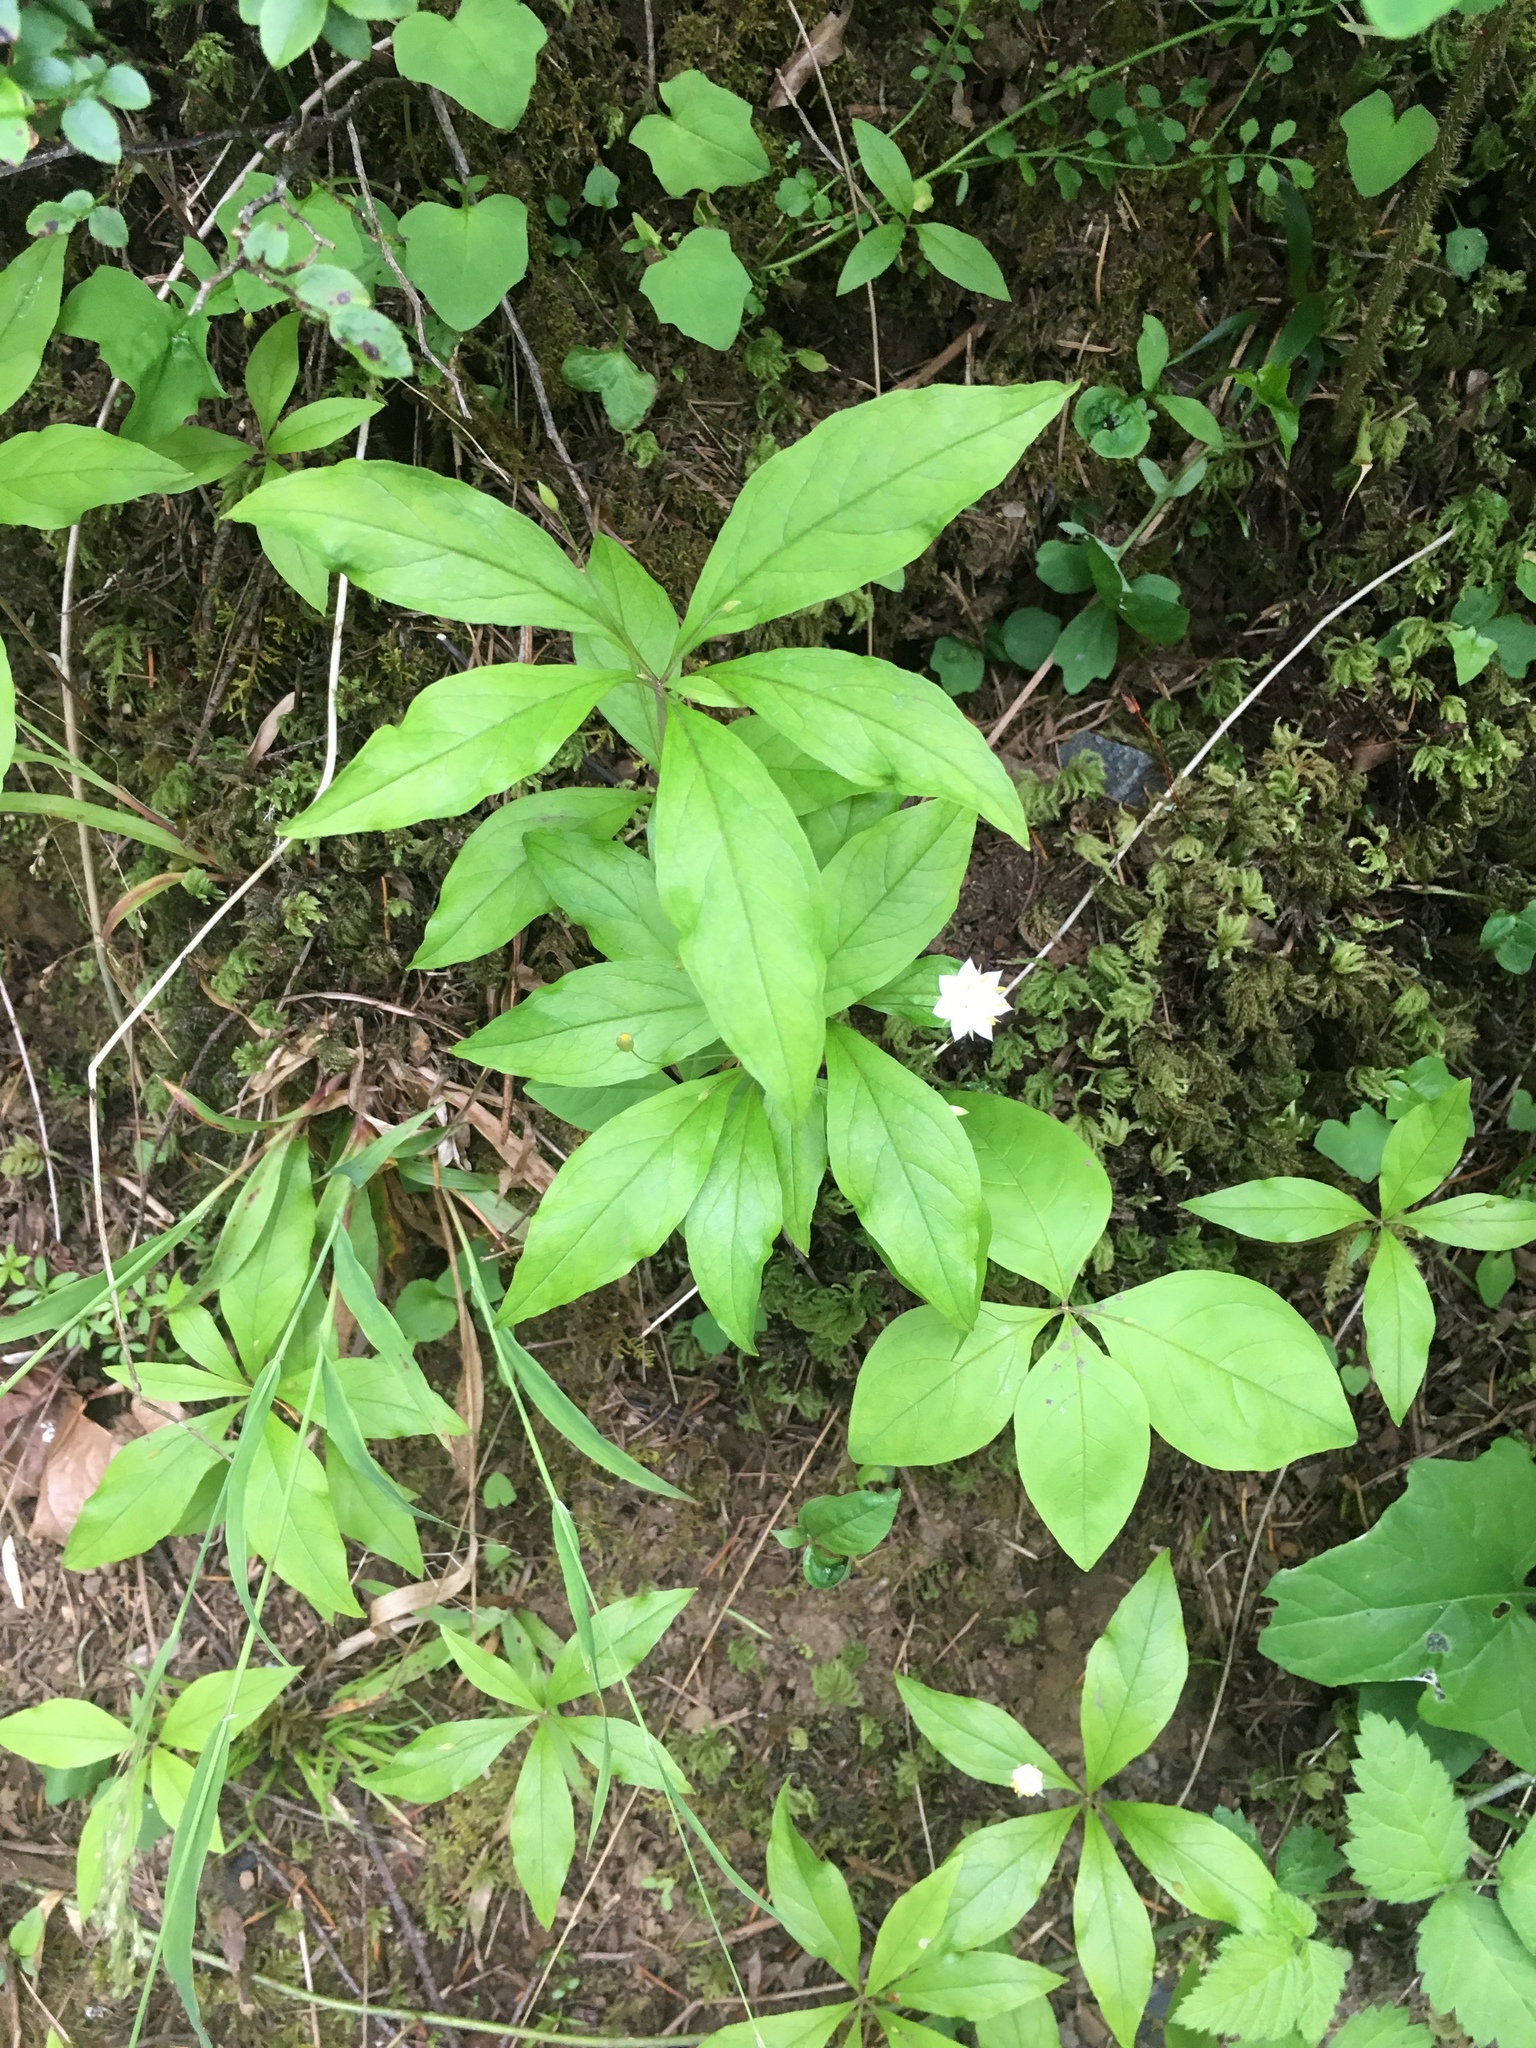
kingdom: Plantae
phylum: Tracheophyta
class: Magnoliopsida
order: Ericales
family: Primulaceae
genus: Lysimachia
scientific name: Lysimachia latifolia
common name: Pacific starflower
